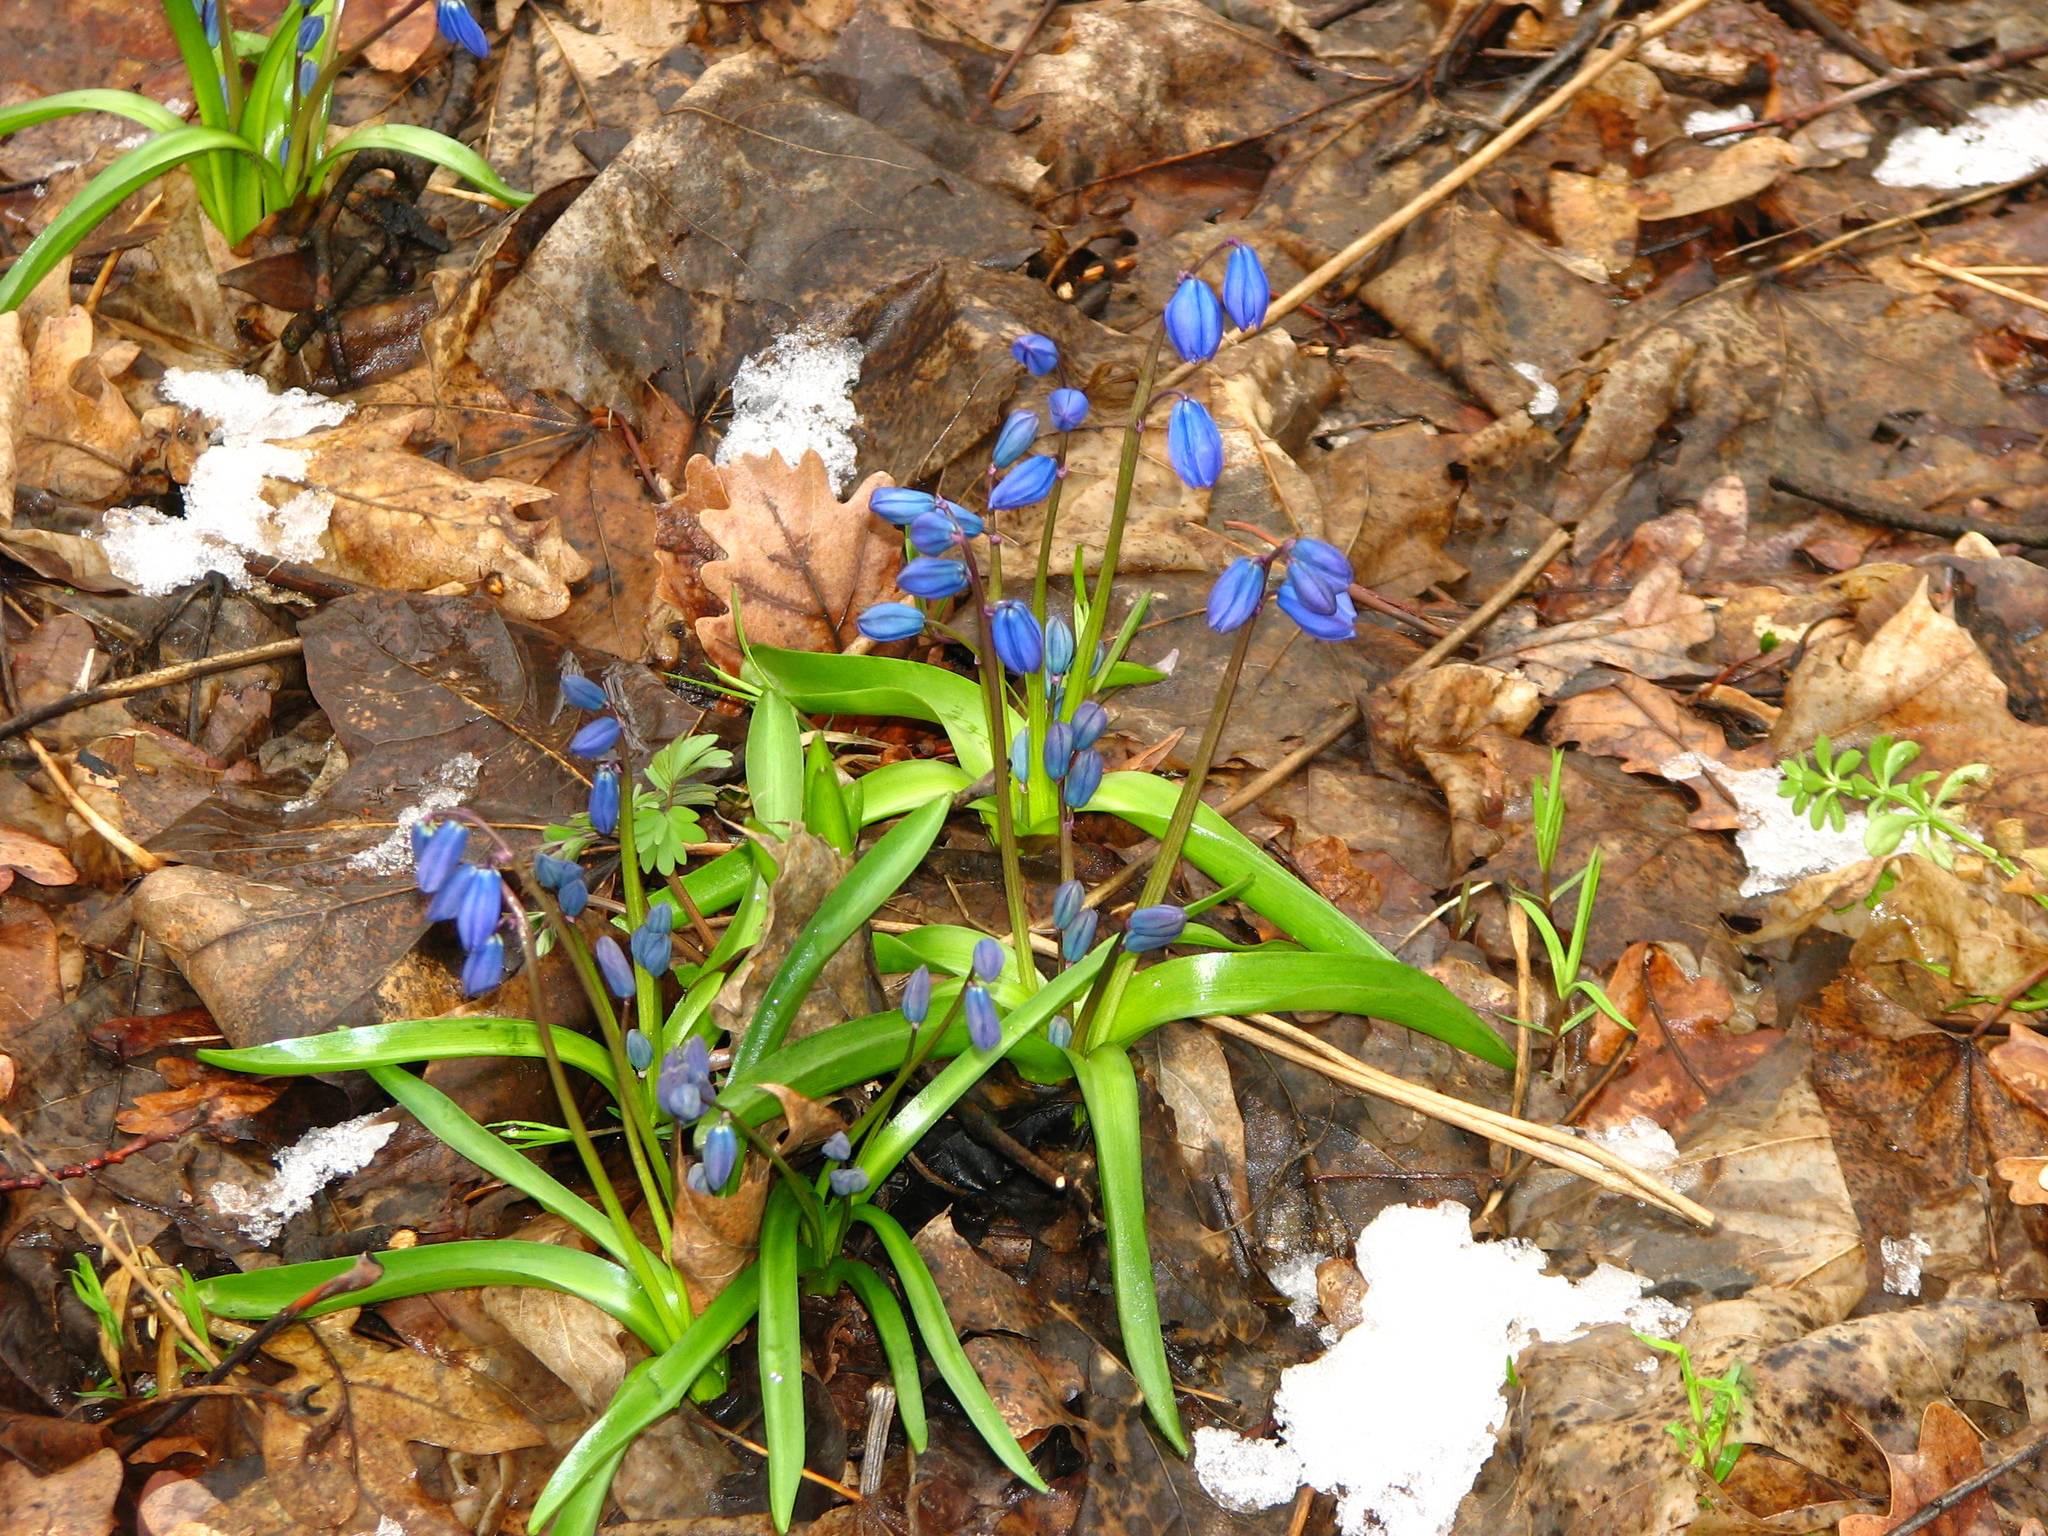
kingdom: Plantae
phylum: Tracheophyta
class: Liliopsida
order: Asparagales
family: Asparagaceae
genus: Scilla
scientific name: Scilla siberica
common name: Siberian squill
